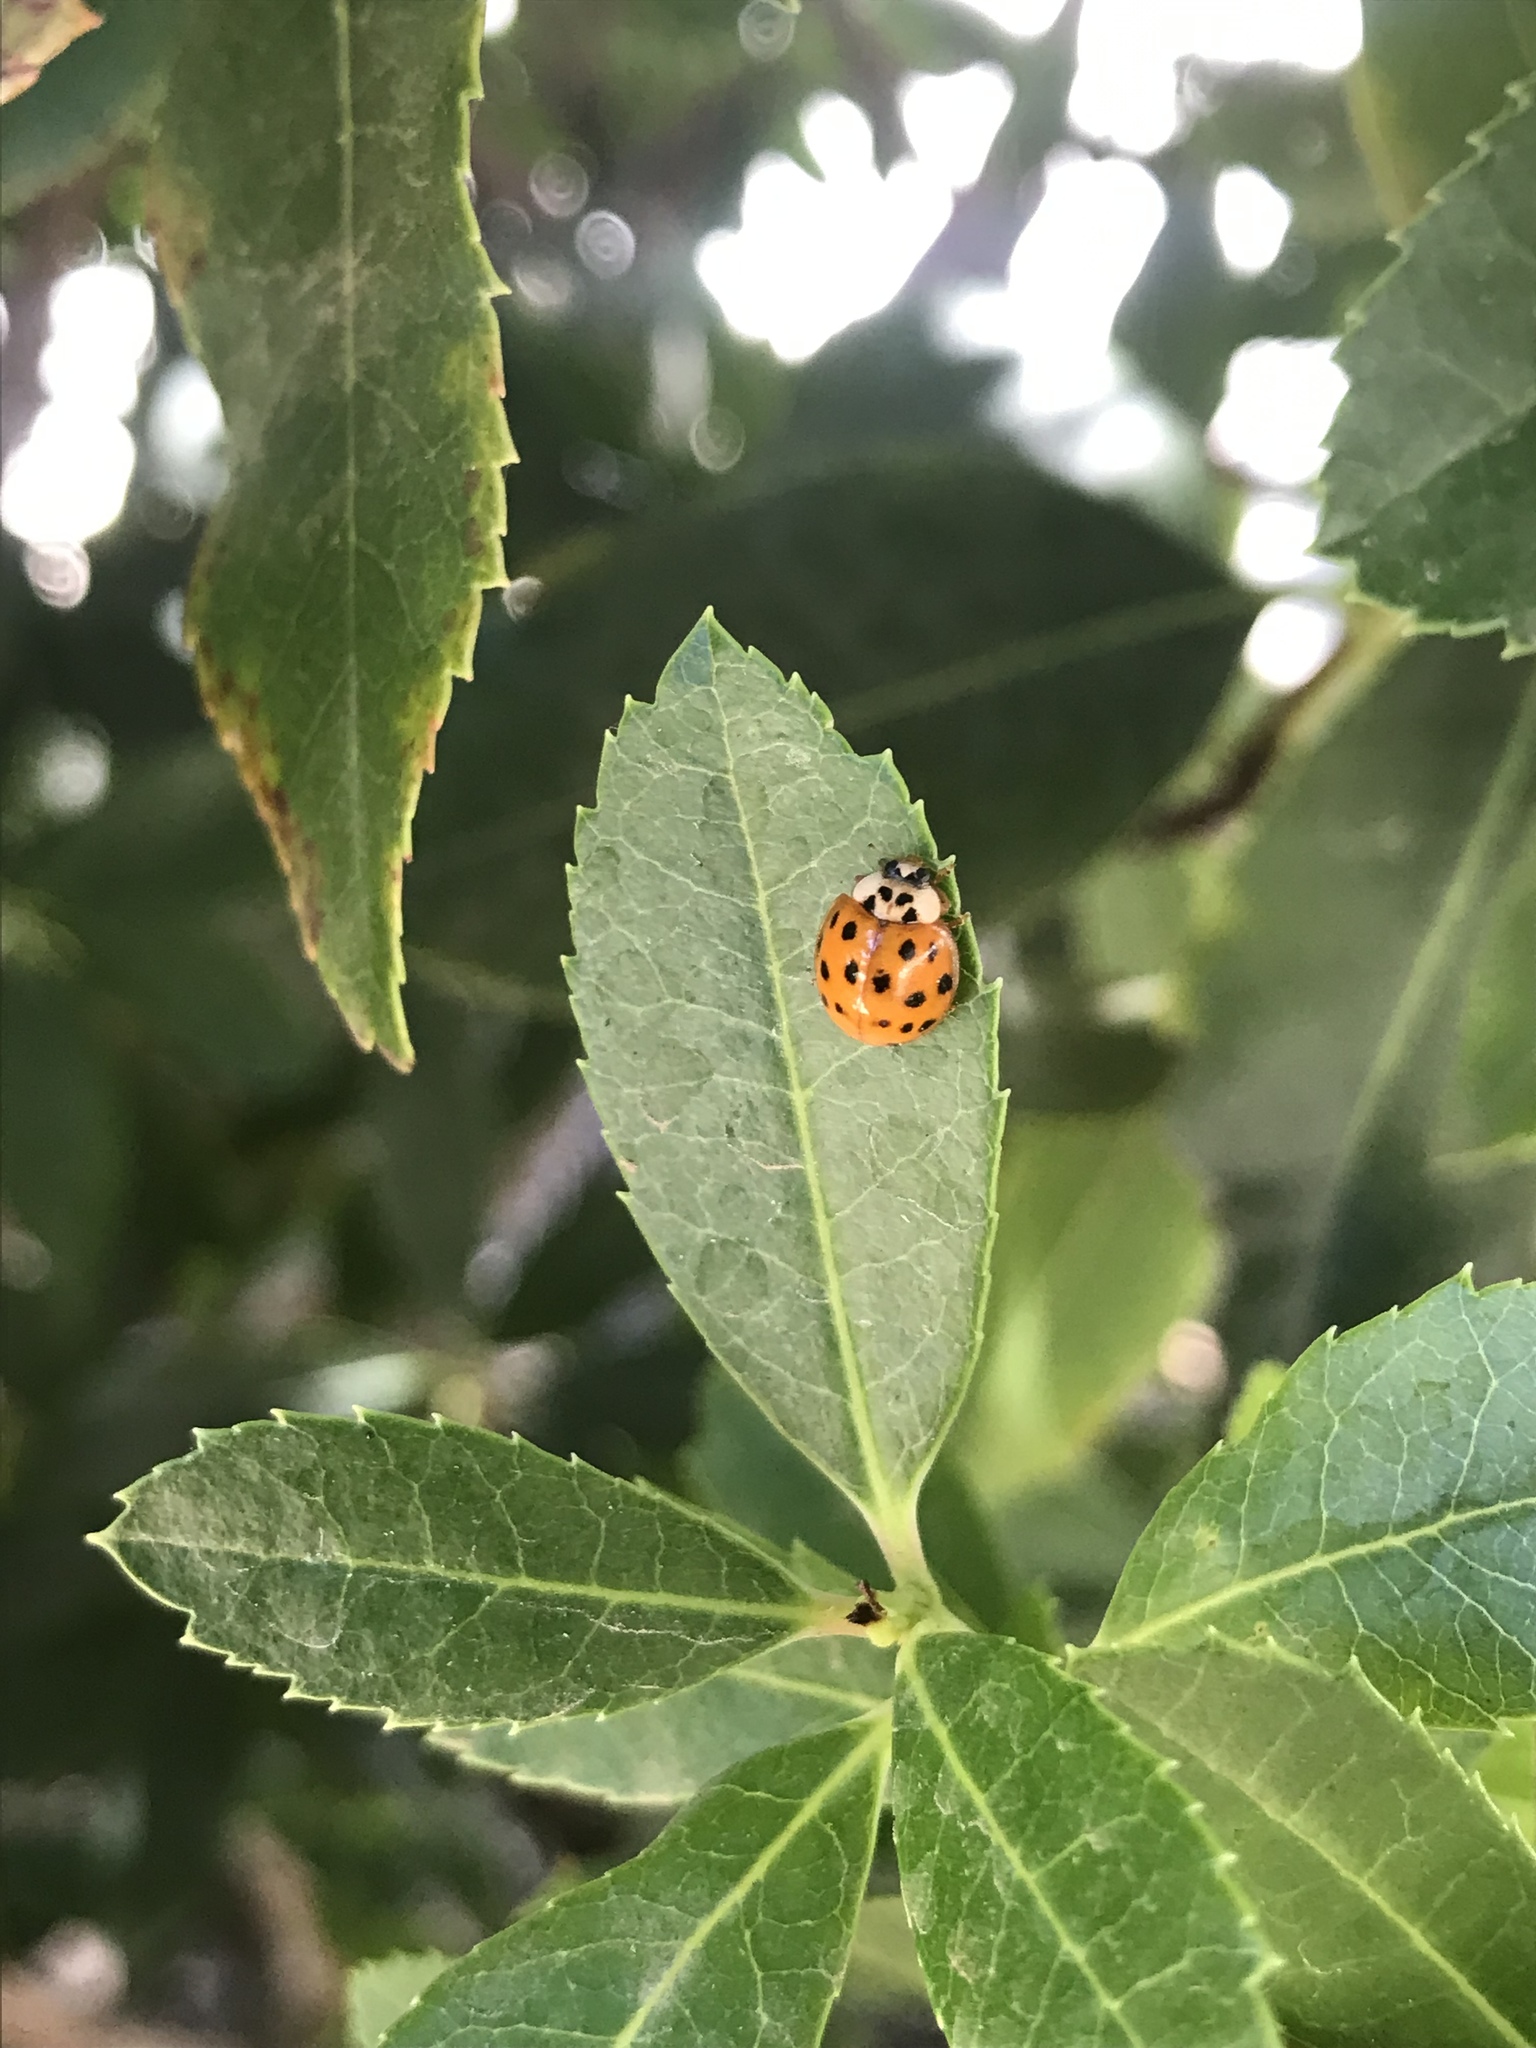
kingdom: Animalia
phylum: Arthropoda
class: Insecta
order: Coleoptera
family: Coccinellidae
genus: Harmonia
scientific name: Harmonia axyridis
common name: Harlequin ladybird
